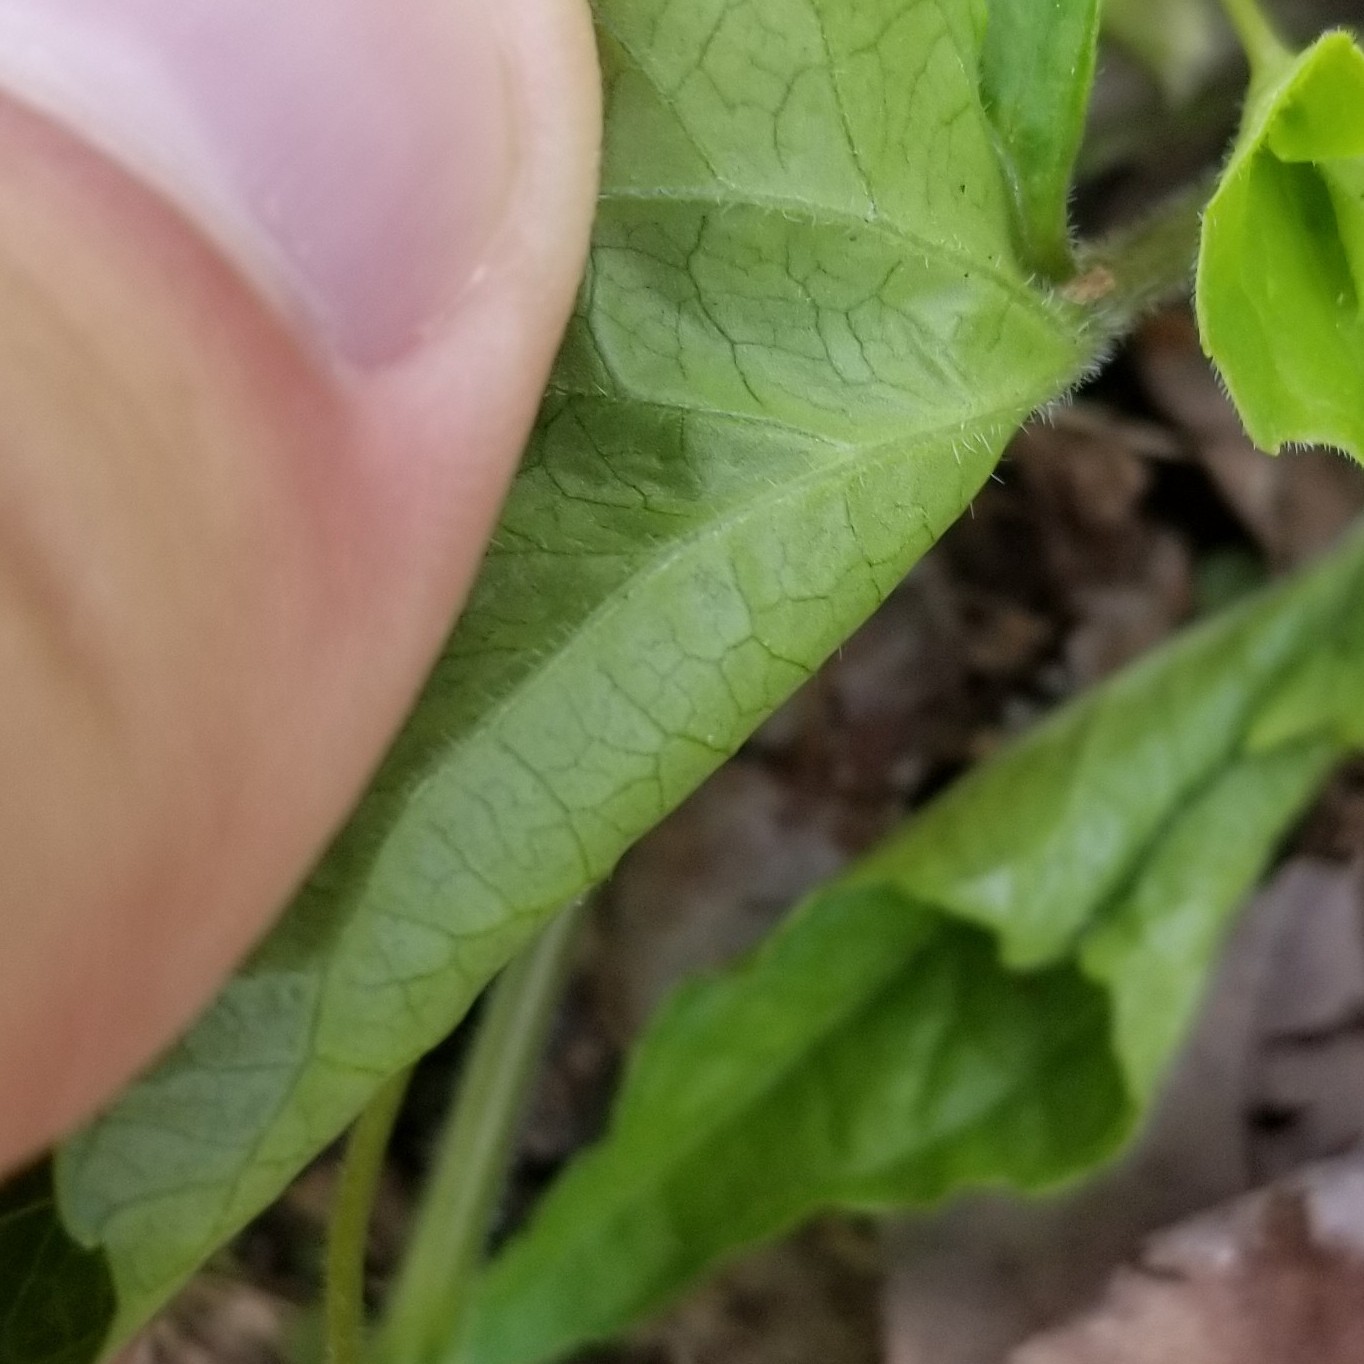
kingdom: Plantae
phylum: Tracheophyta
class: Magnoliopsida
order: Malpighiales
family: Violaceae
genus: Viola
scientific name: Viola eriocarpa
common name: Smooth yellow violet
